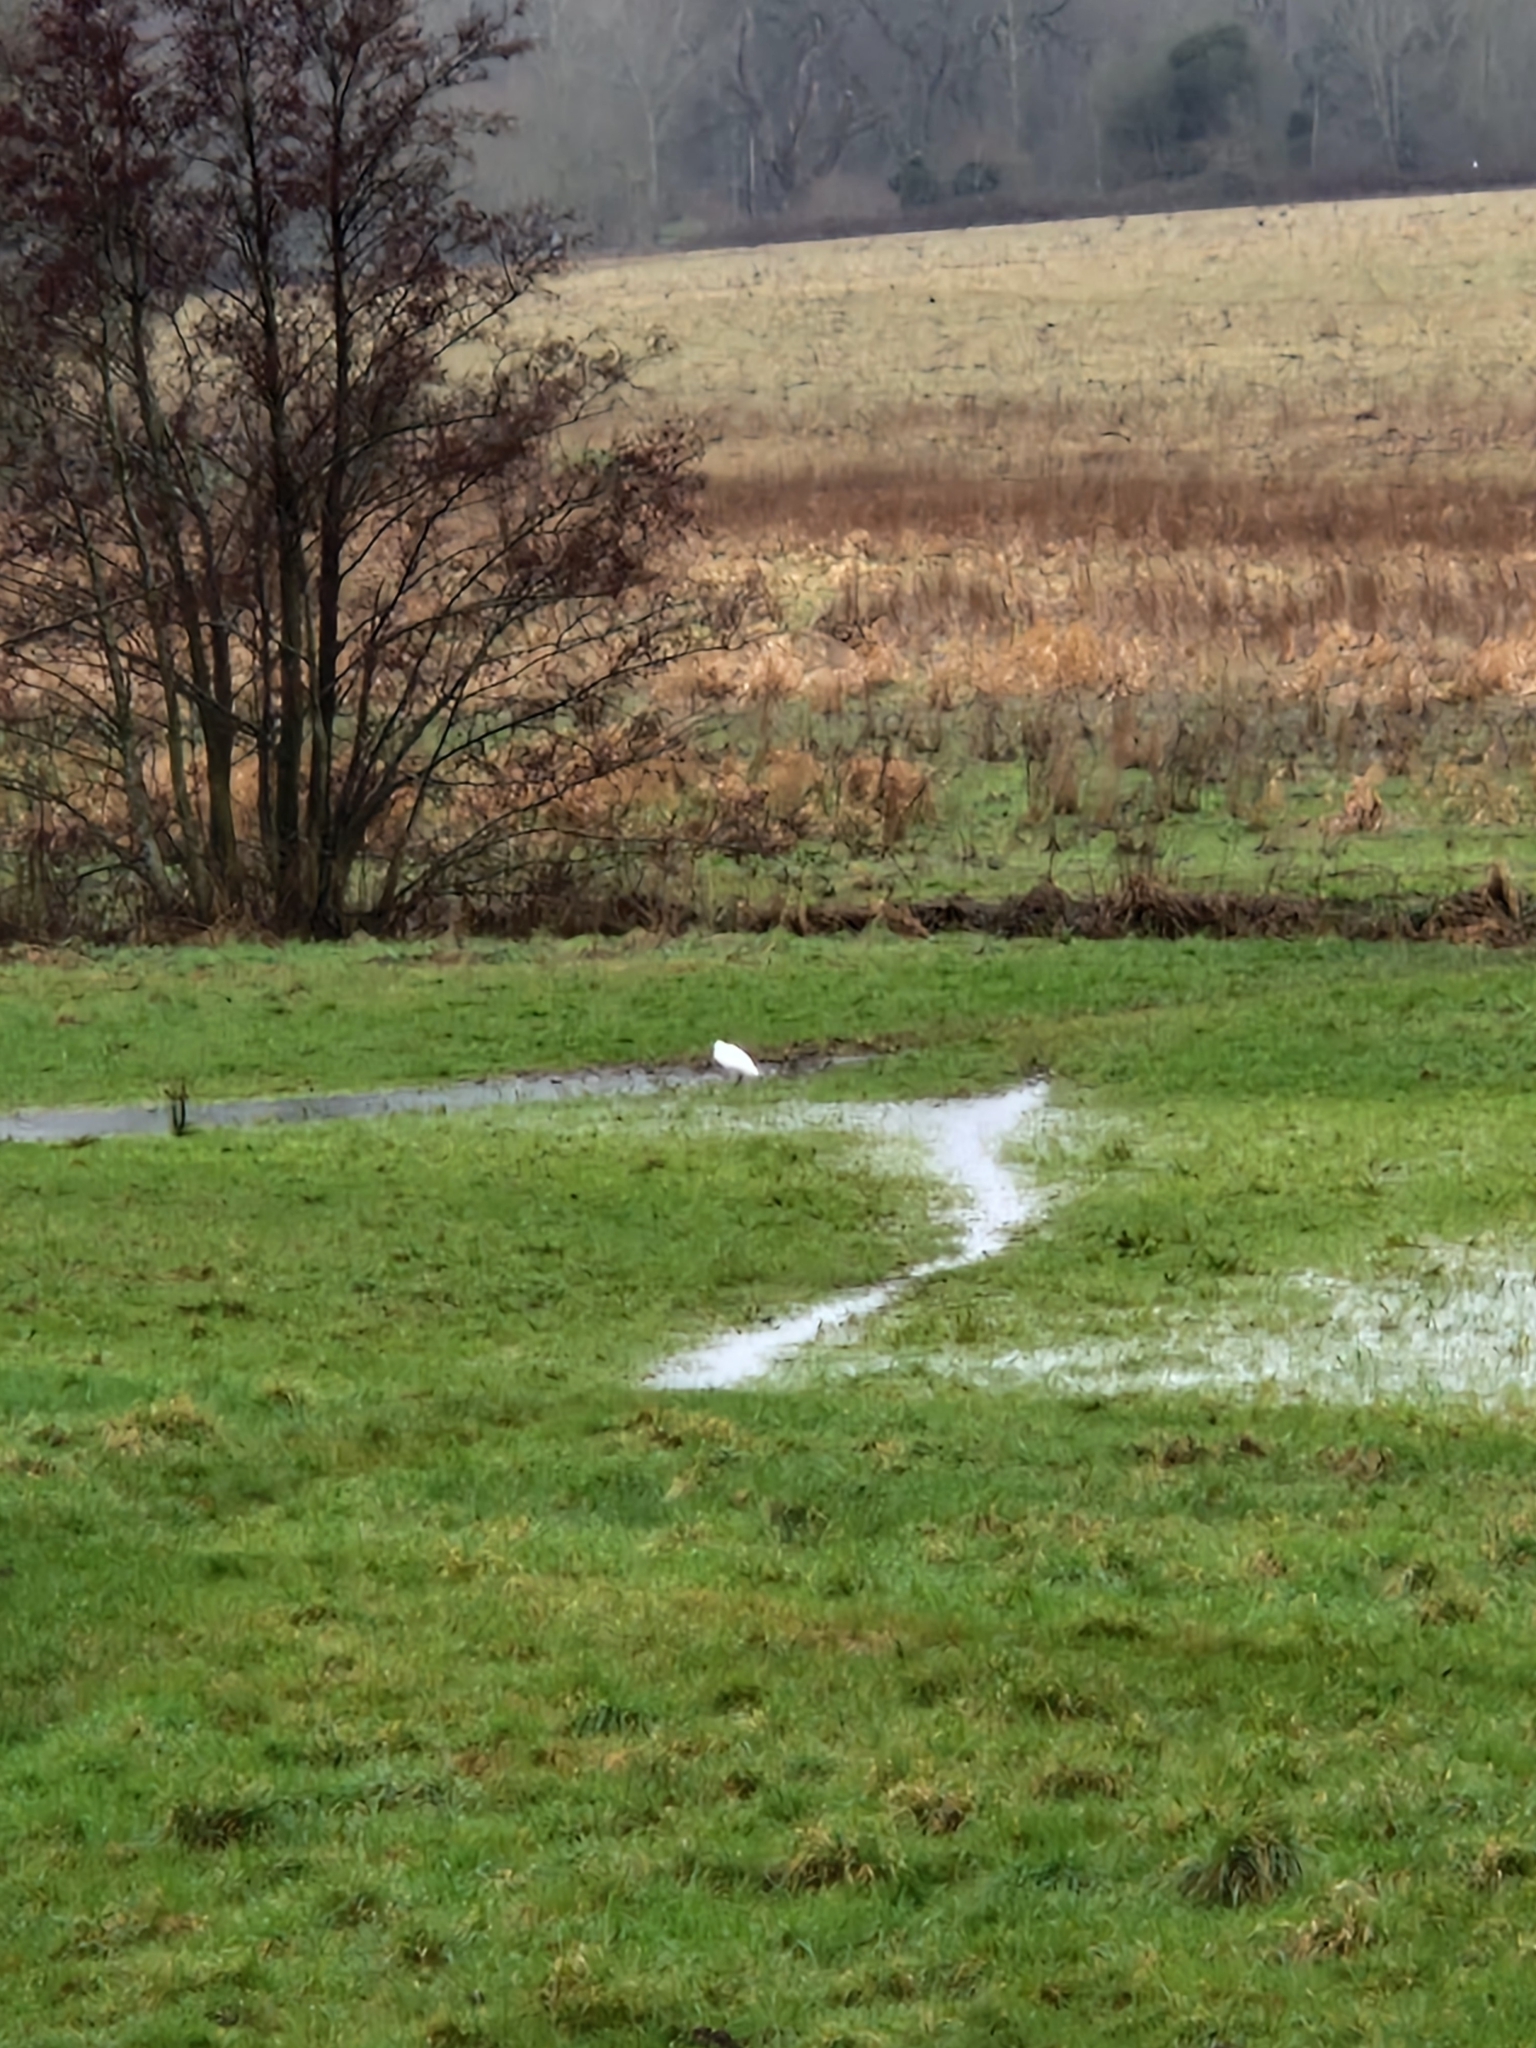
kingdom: Animalia
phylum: Chordata
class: Aves
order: Pelecaniformes
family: Ardeidae
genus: Egretta
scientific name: Egretta garzetta
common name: Little egret
